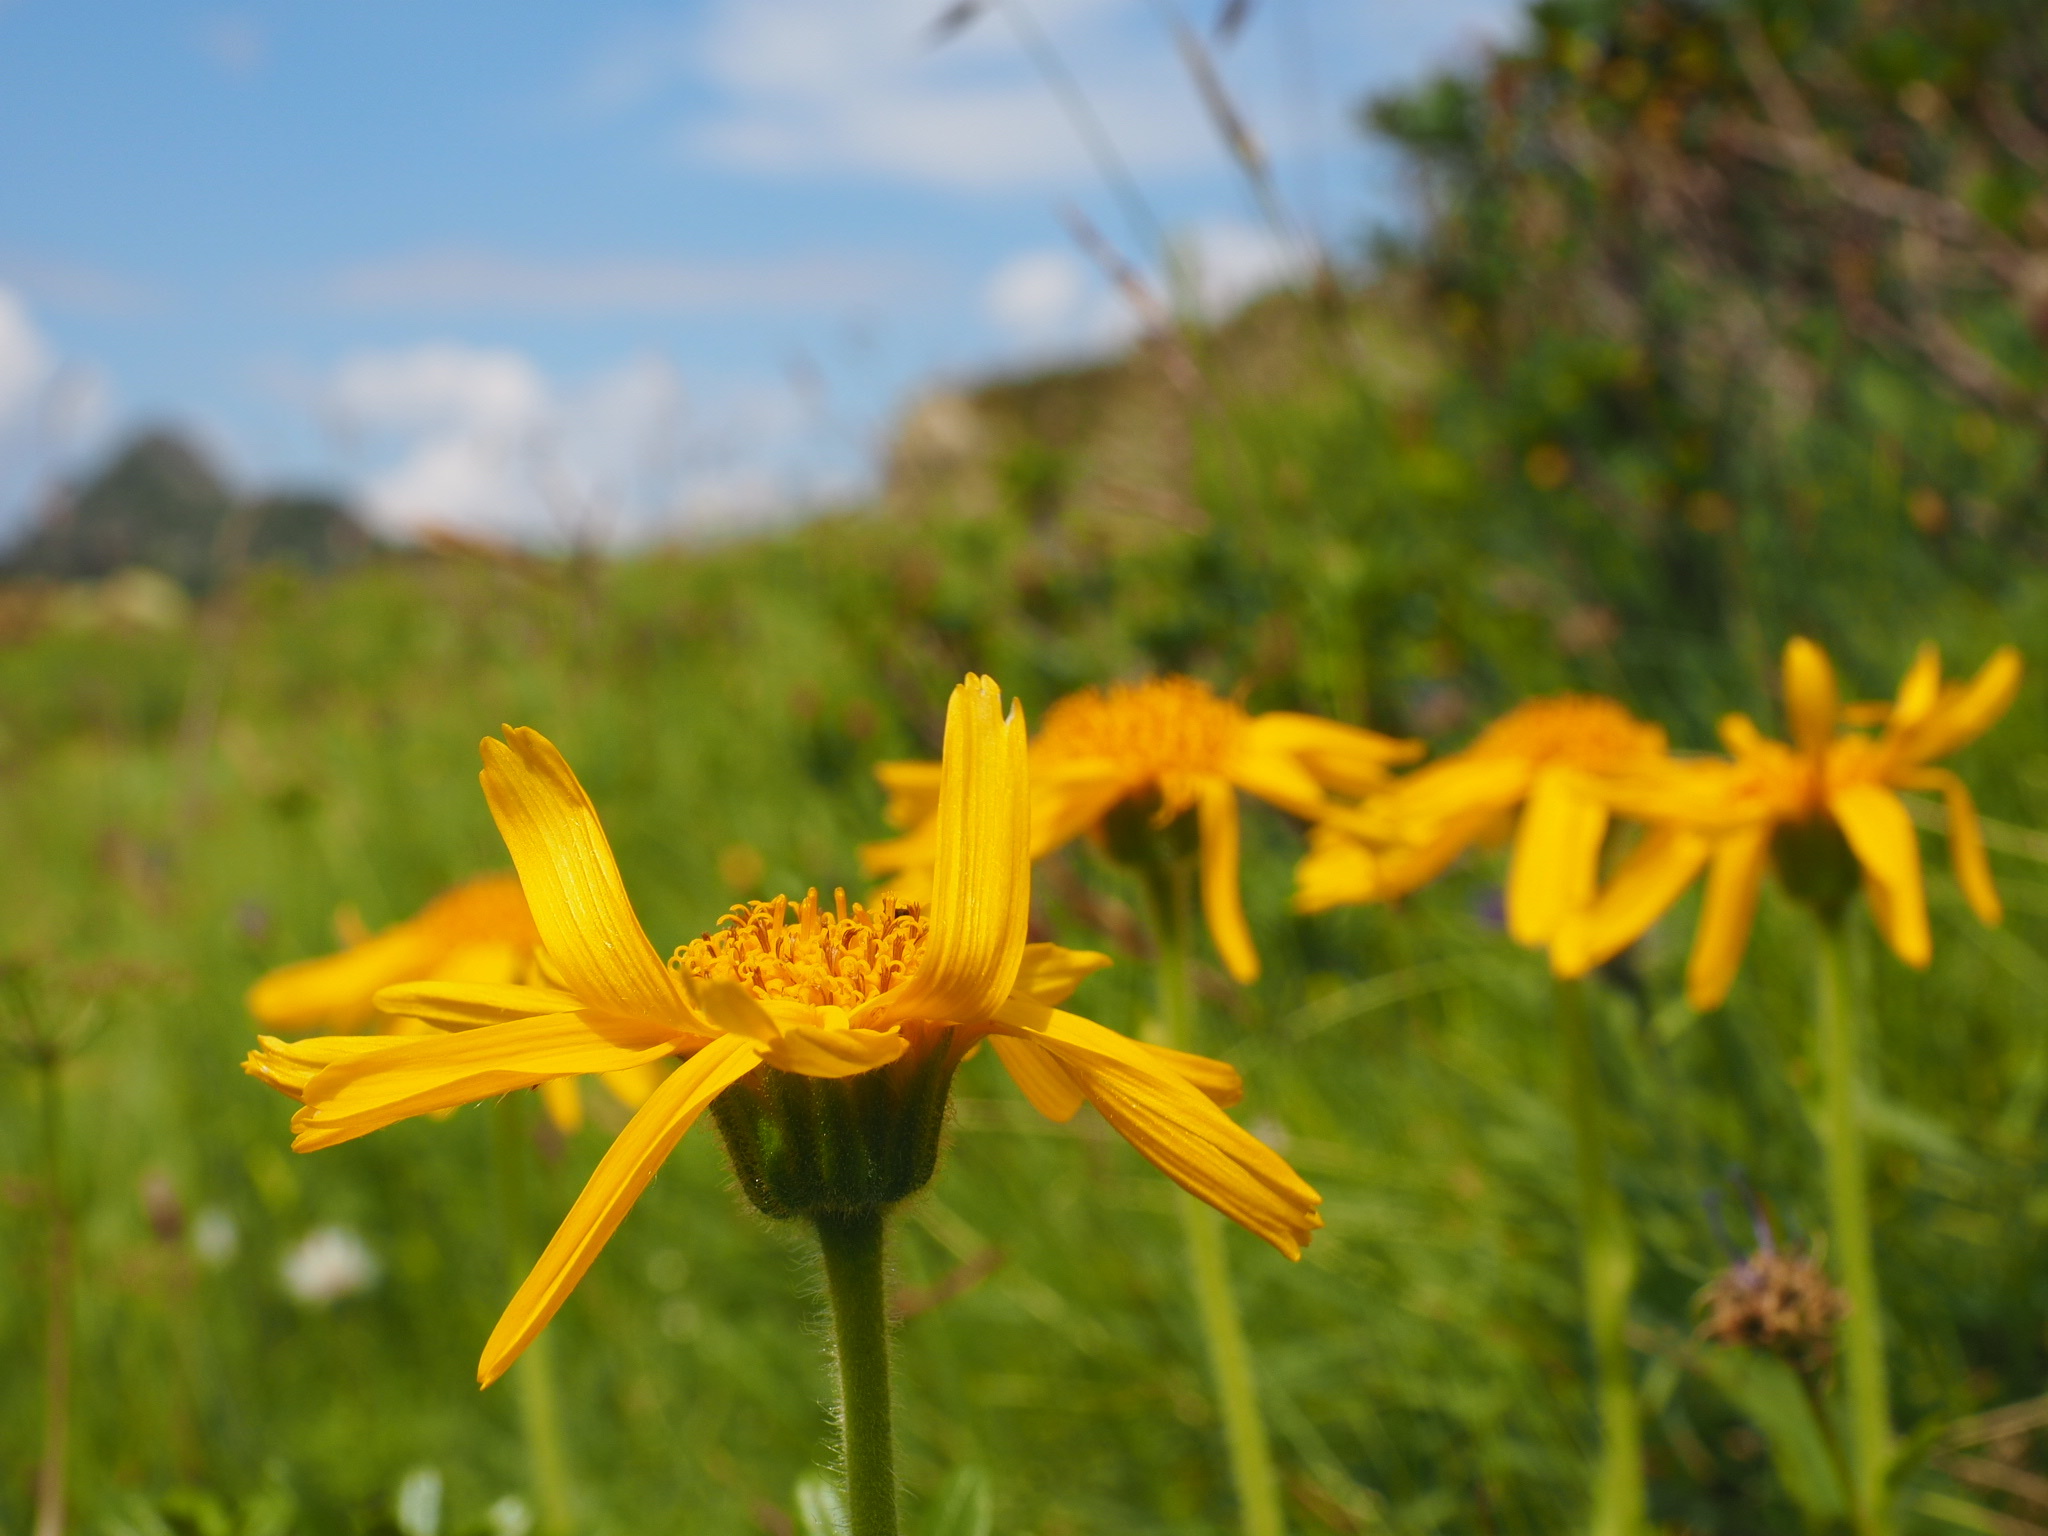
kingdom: Plantae
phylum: Tracheophyta
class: Magnoliopsida
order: Asterales
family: Asteraceae
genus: Arnica
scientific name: Arnica montana
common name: Leopard's bane
